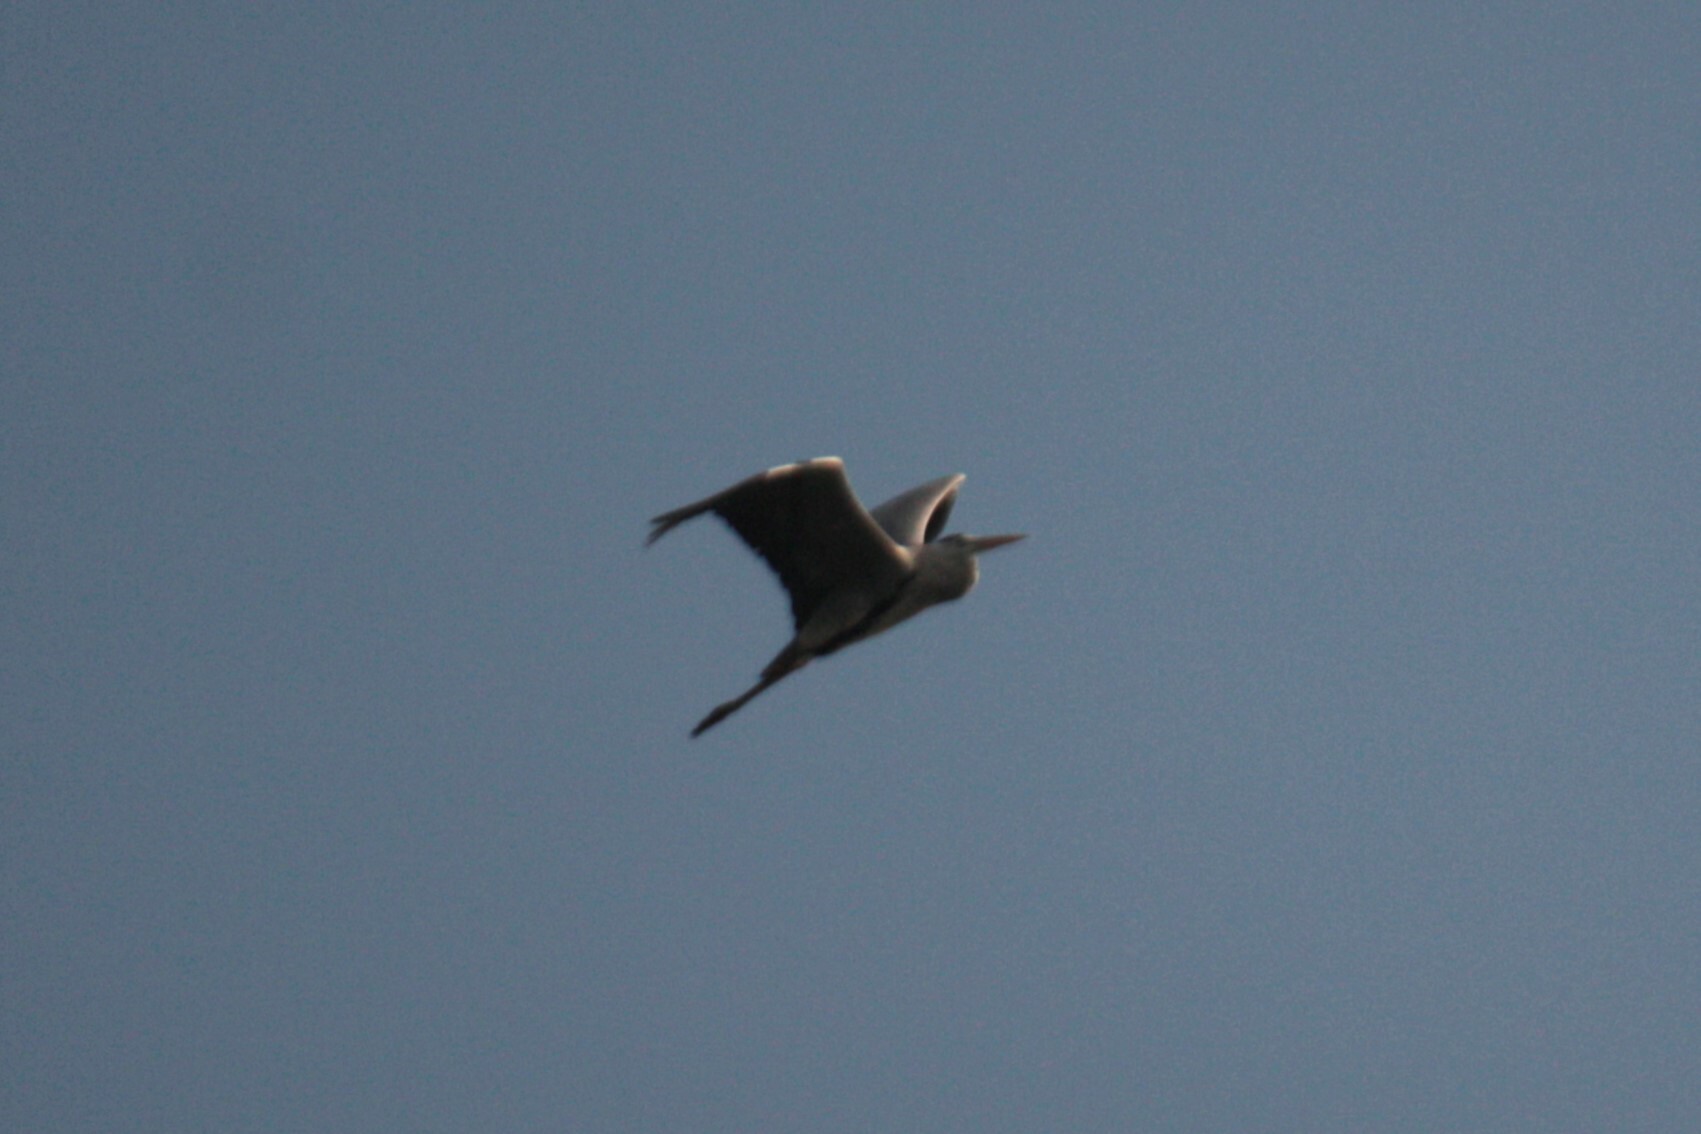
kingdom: Animalia
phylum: Chordata
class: Aves
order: Pelecaniformes
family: Ardeidae
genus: Ardea
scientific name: Ardea cinerea
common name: Grey heron
